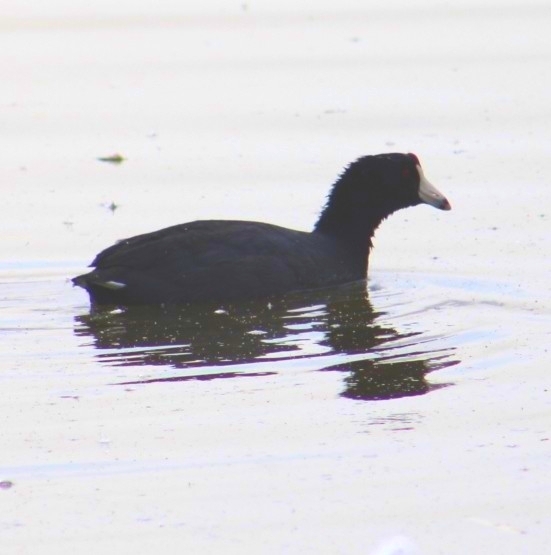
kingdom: Animalia
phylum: Chordata
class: Aves
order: Gruiformes
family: Rallidae
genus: Fulica
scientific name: Fulica americana
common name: American coot
